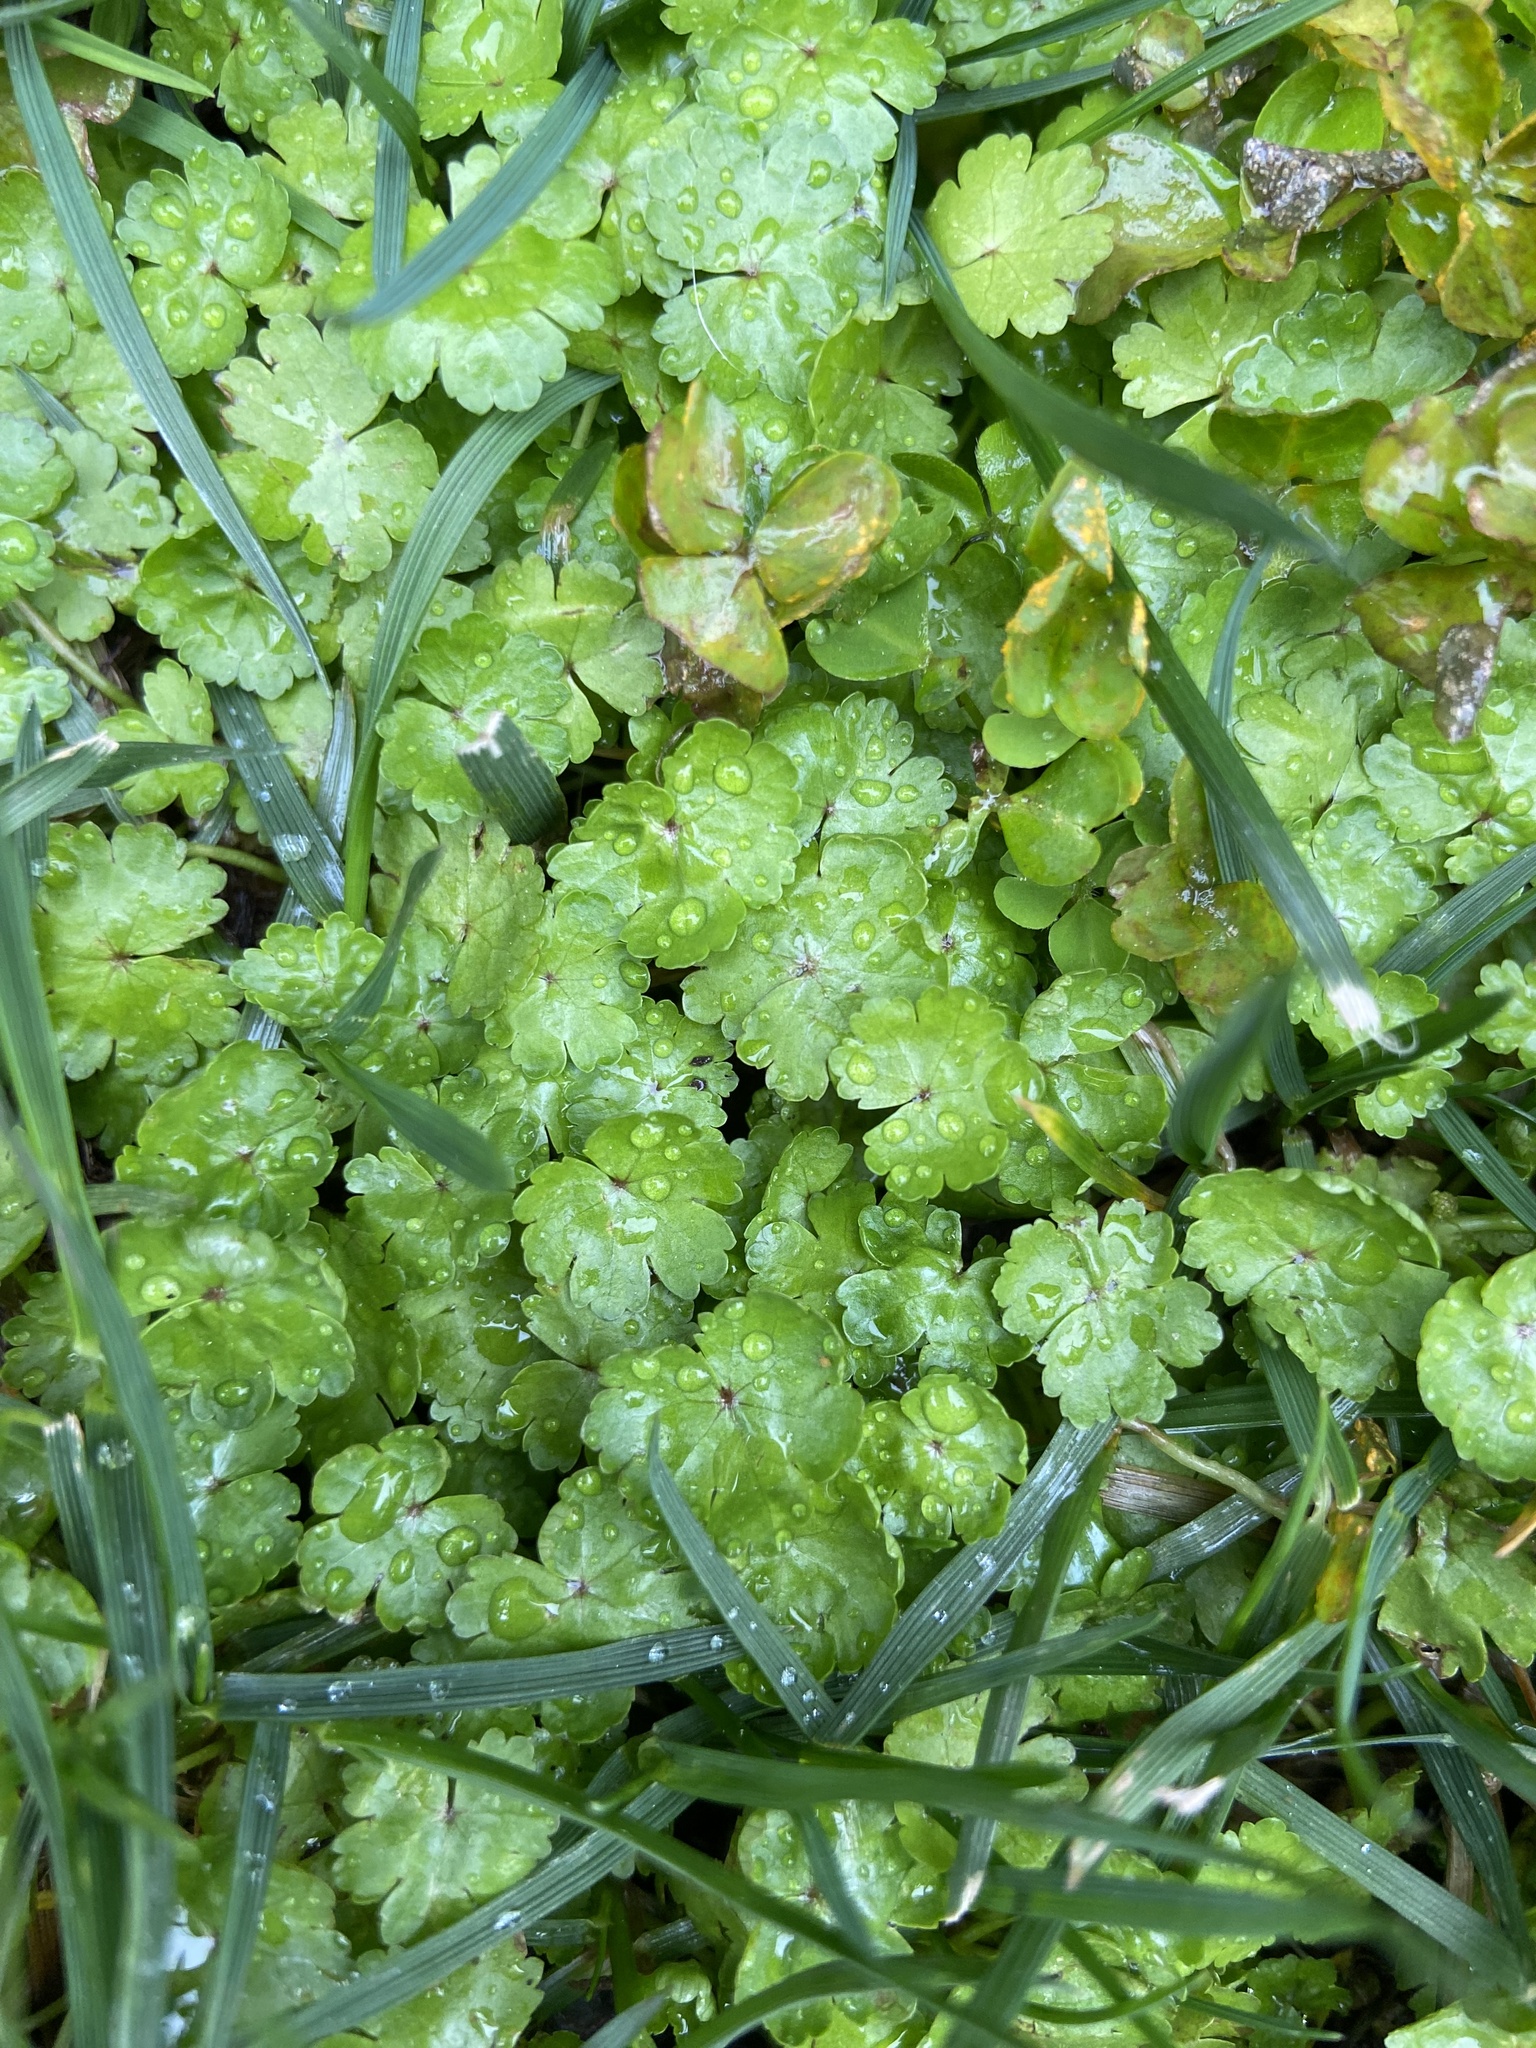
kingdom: Plantae
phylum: Tracheophyta
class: Magnoliopsida
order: Apiales
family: Araliaceae
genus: Hydrocotyle
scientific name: Hydrocotyle sibthorpioides
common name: Lawn marshpennywort
